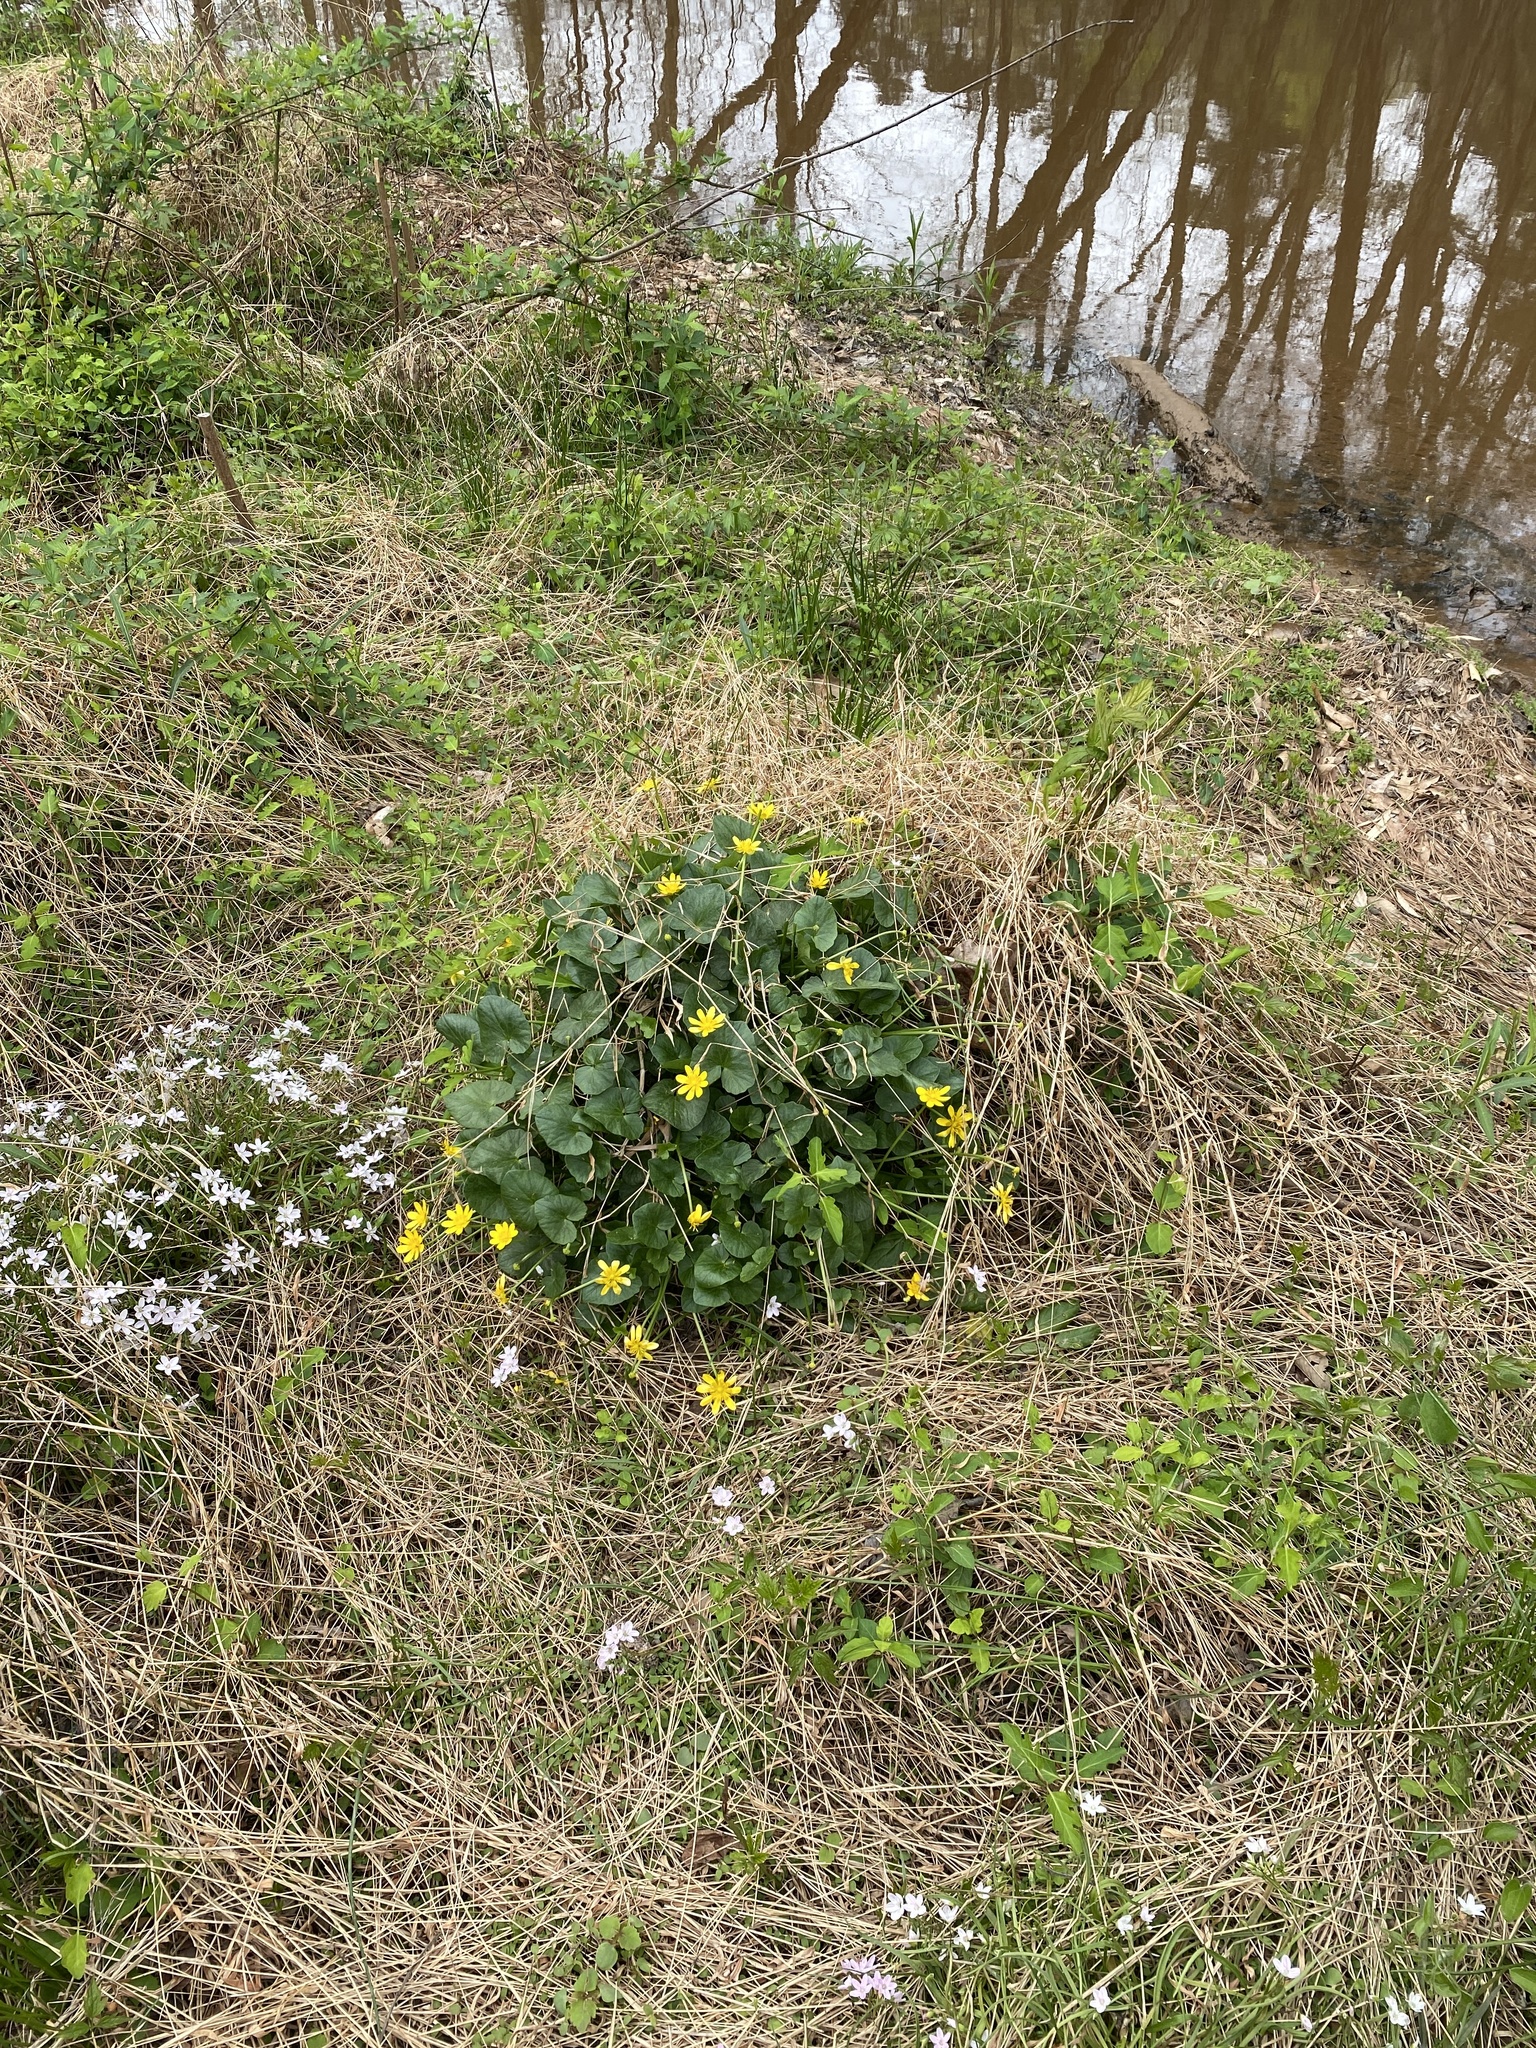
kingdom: Plantae
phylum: Tracheophyta
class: Magnoliopsida
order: Ranunculales
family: Ranunculaceae
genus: Ficaria
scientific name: Ficaria verna
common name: Lesser celandine
